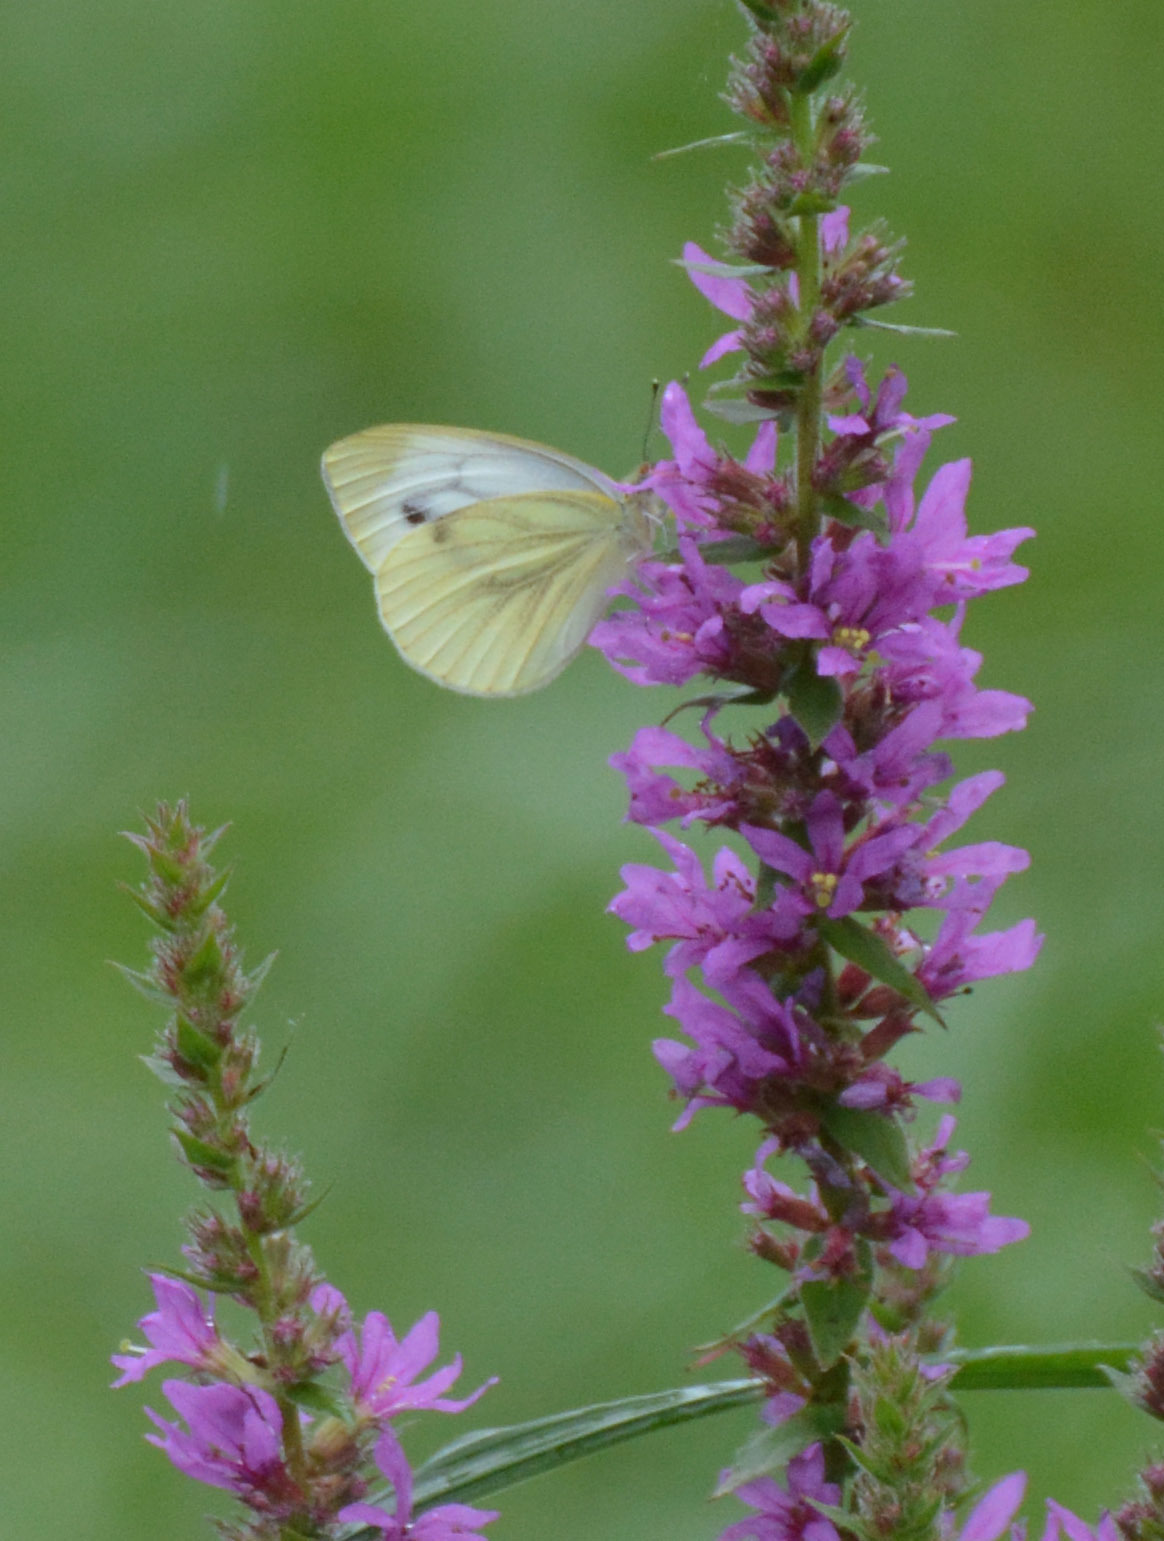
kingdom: Animalia
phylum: Arthropoda
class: Insecta
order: Lepidoptera
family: Pieridae
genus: Pieris
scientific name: Pieris napi
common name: Green-veined white
